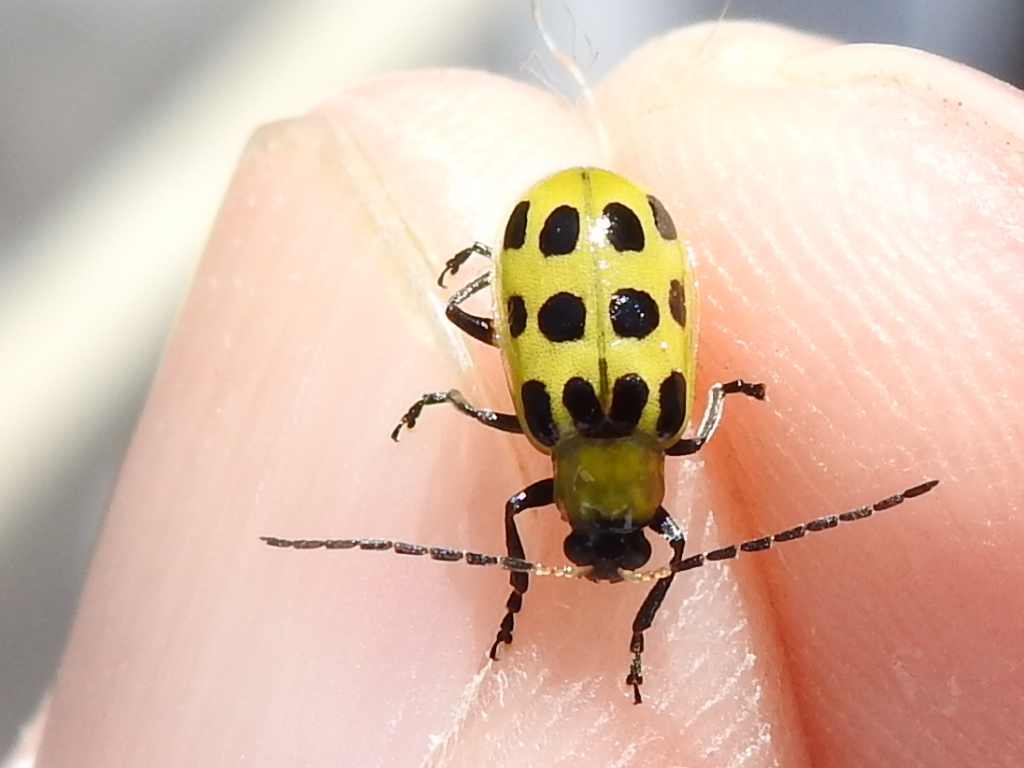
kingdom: Animalia
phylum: Arthropoda
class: Insecta
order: Coleoptera
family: Chrysomelidae
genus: Diabrotica
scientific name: Diabrotica undecimpunctata
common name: Spotted cucumber beetle
